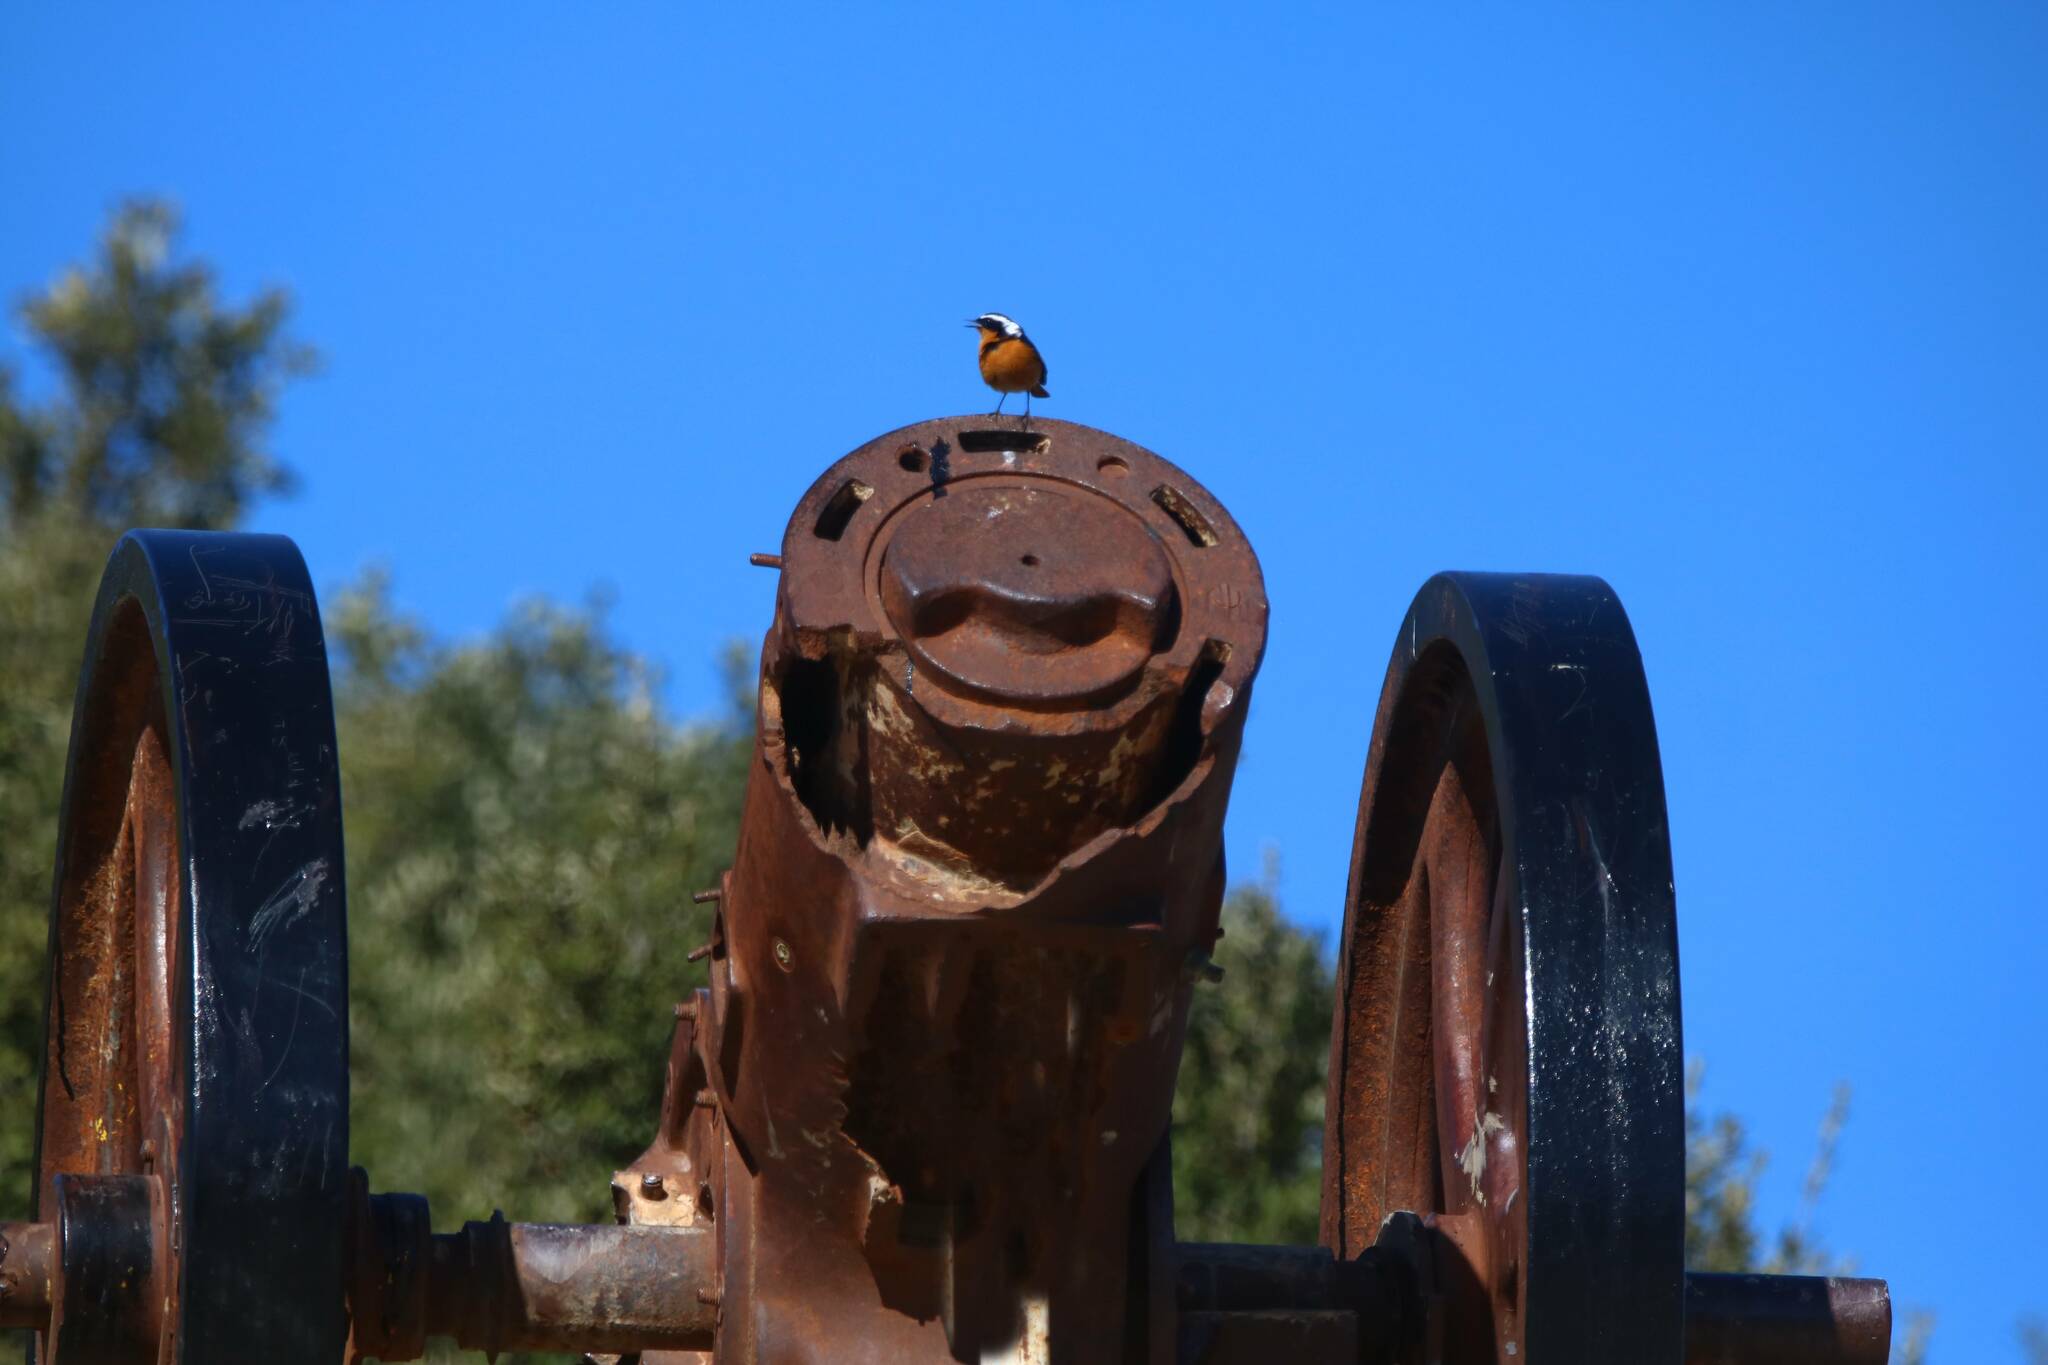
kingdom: Animalia
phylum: Chordata
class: Aves
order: Passeriformes
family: Muscicapidae
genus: Phoenicurus
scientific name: Phoenicurus moussieri
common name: Moussier's redstart
